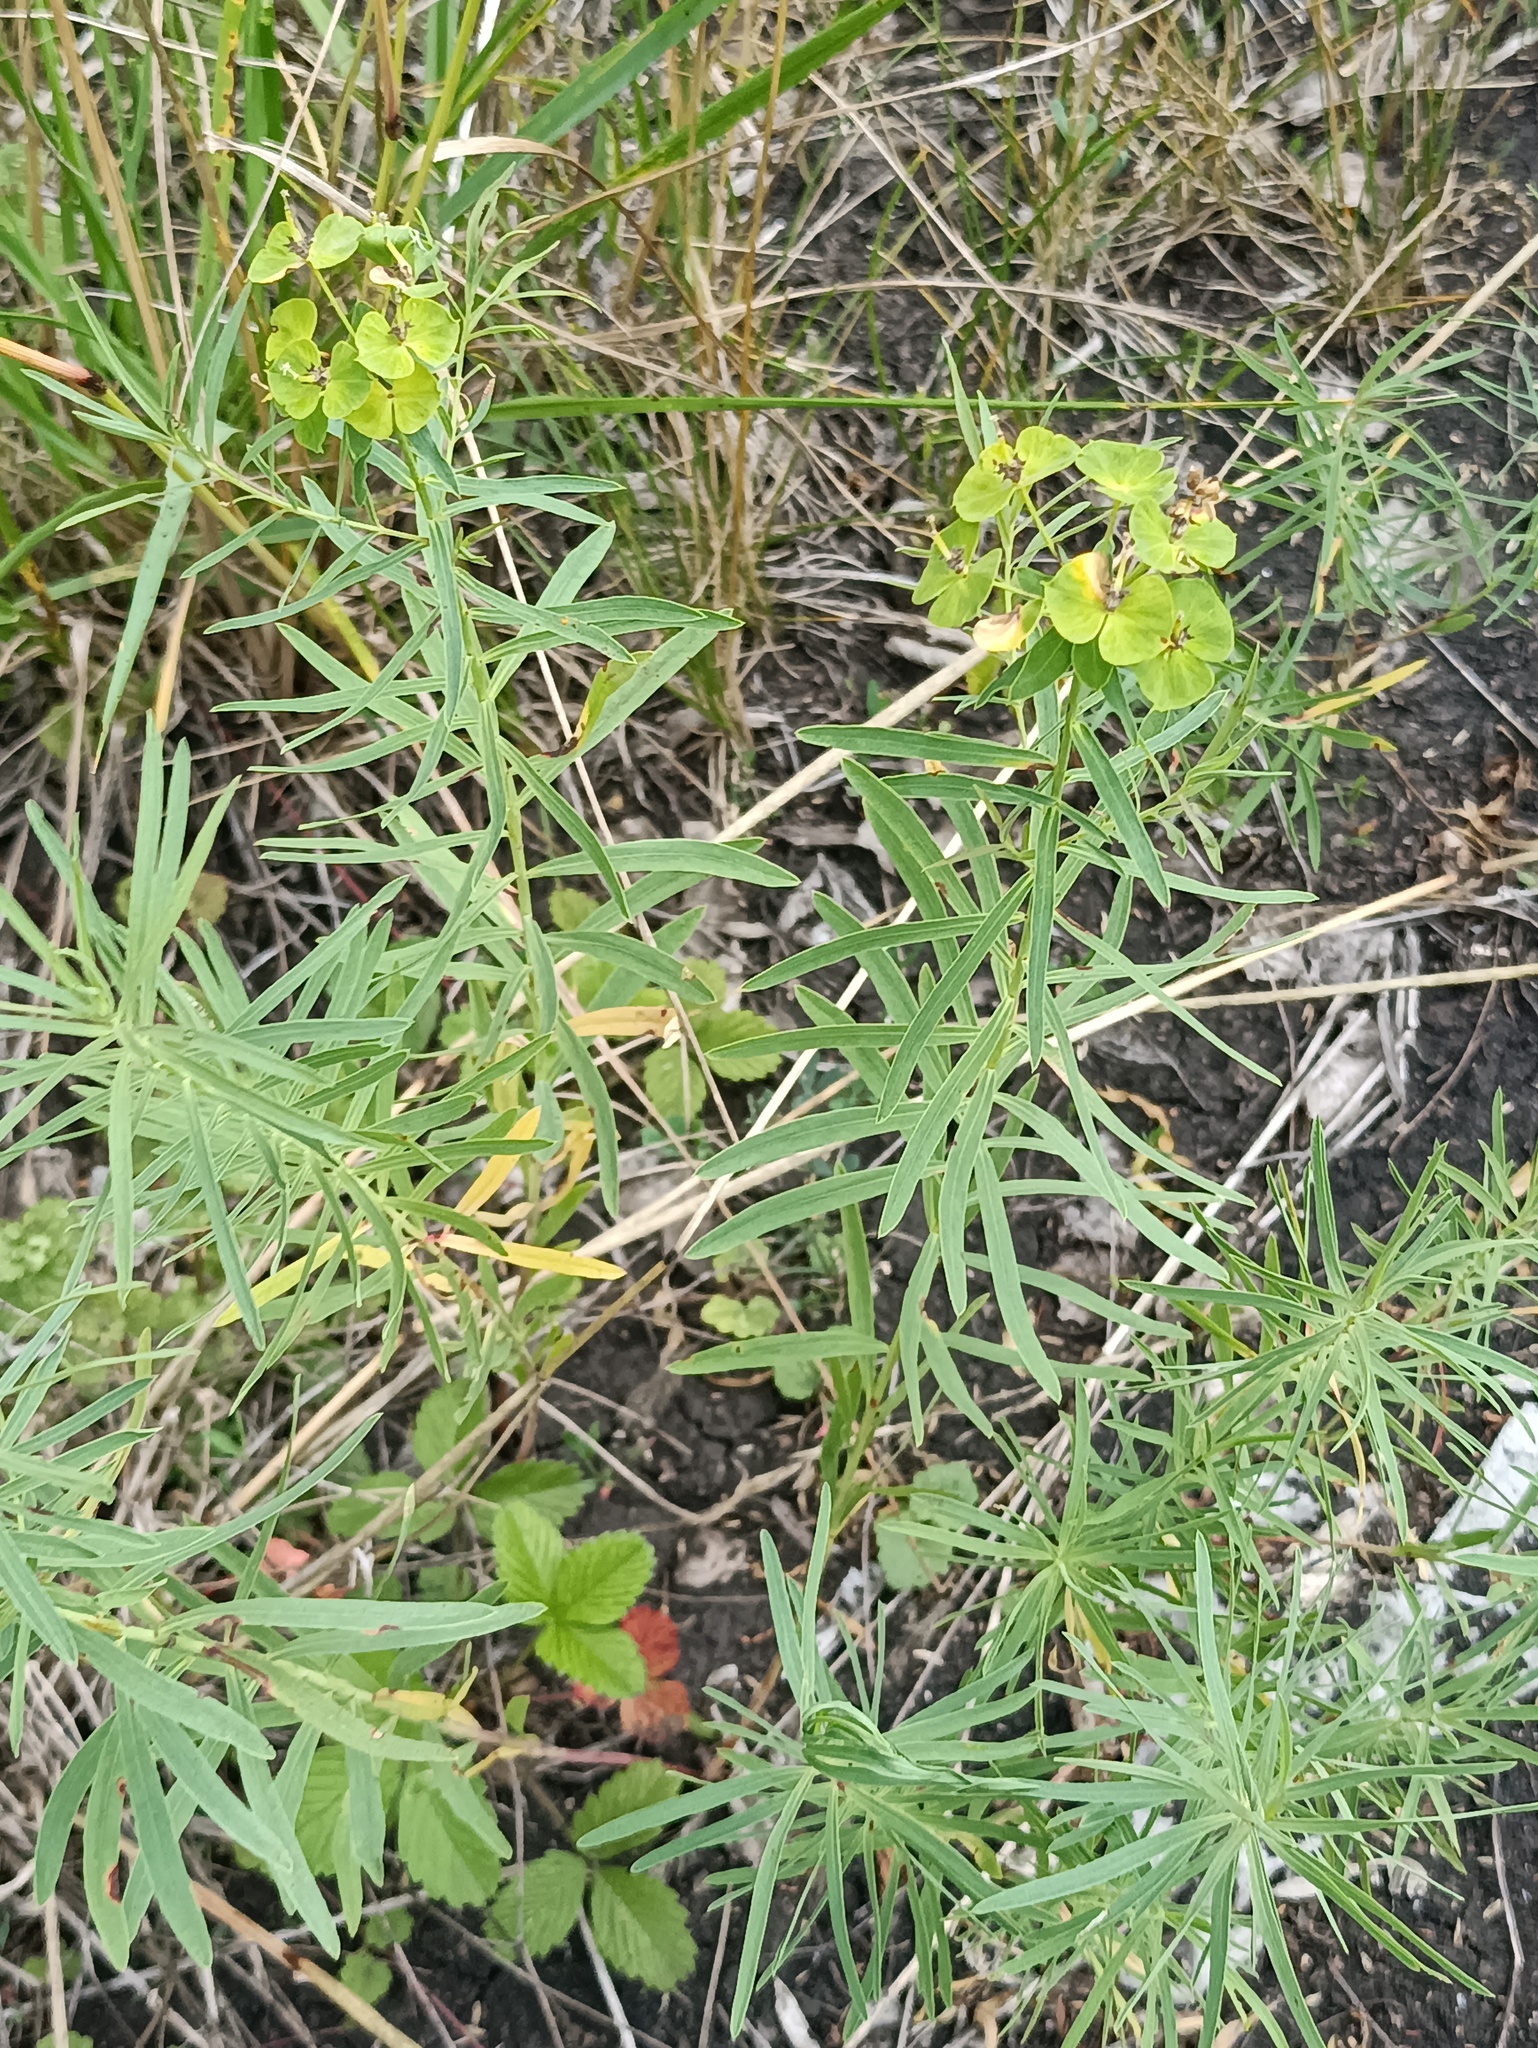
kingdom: Plantae
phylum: Tracheophyta
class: Magnoliopsida
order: Malpighiales
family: Euphorbiaceae
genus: Euphorbia
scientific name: Euphorbia virgata
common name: Leafy spurge
